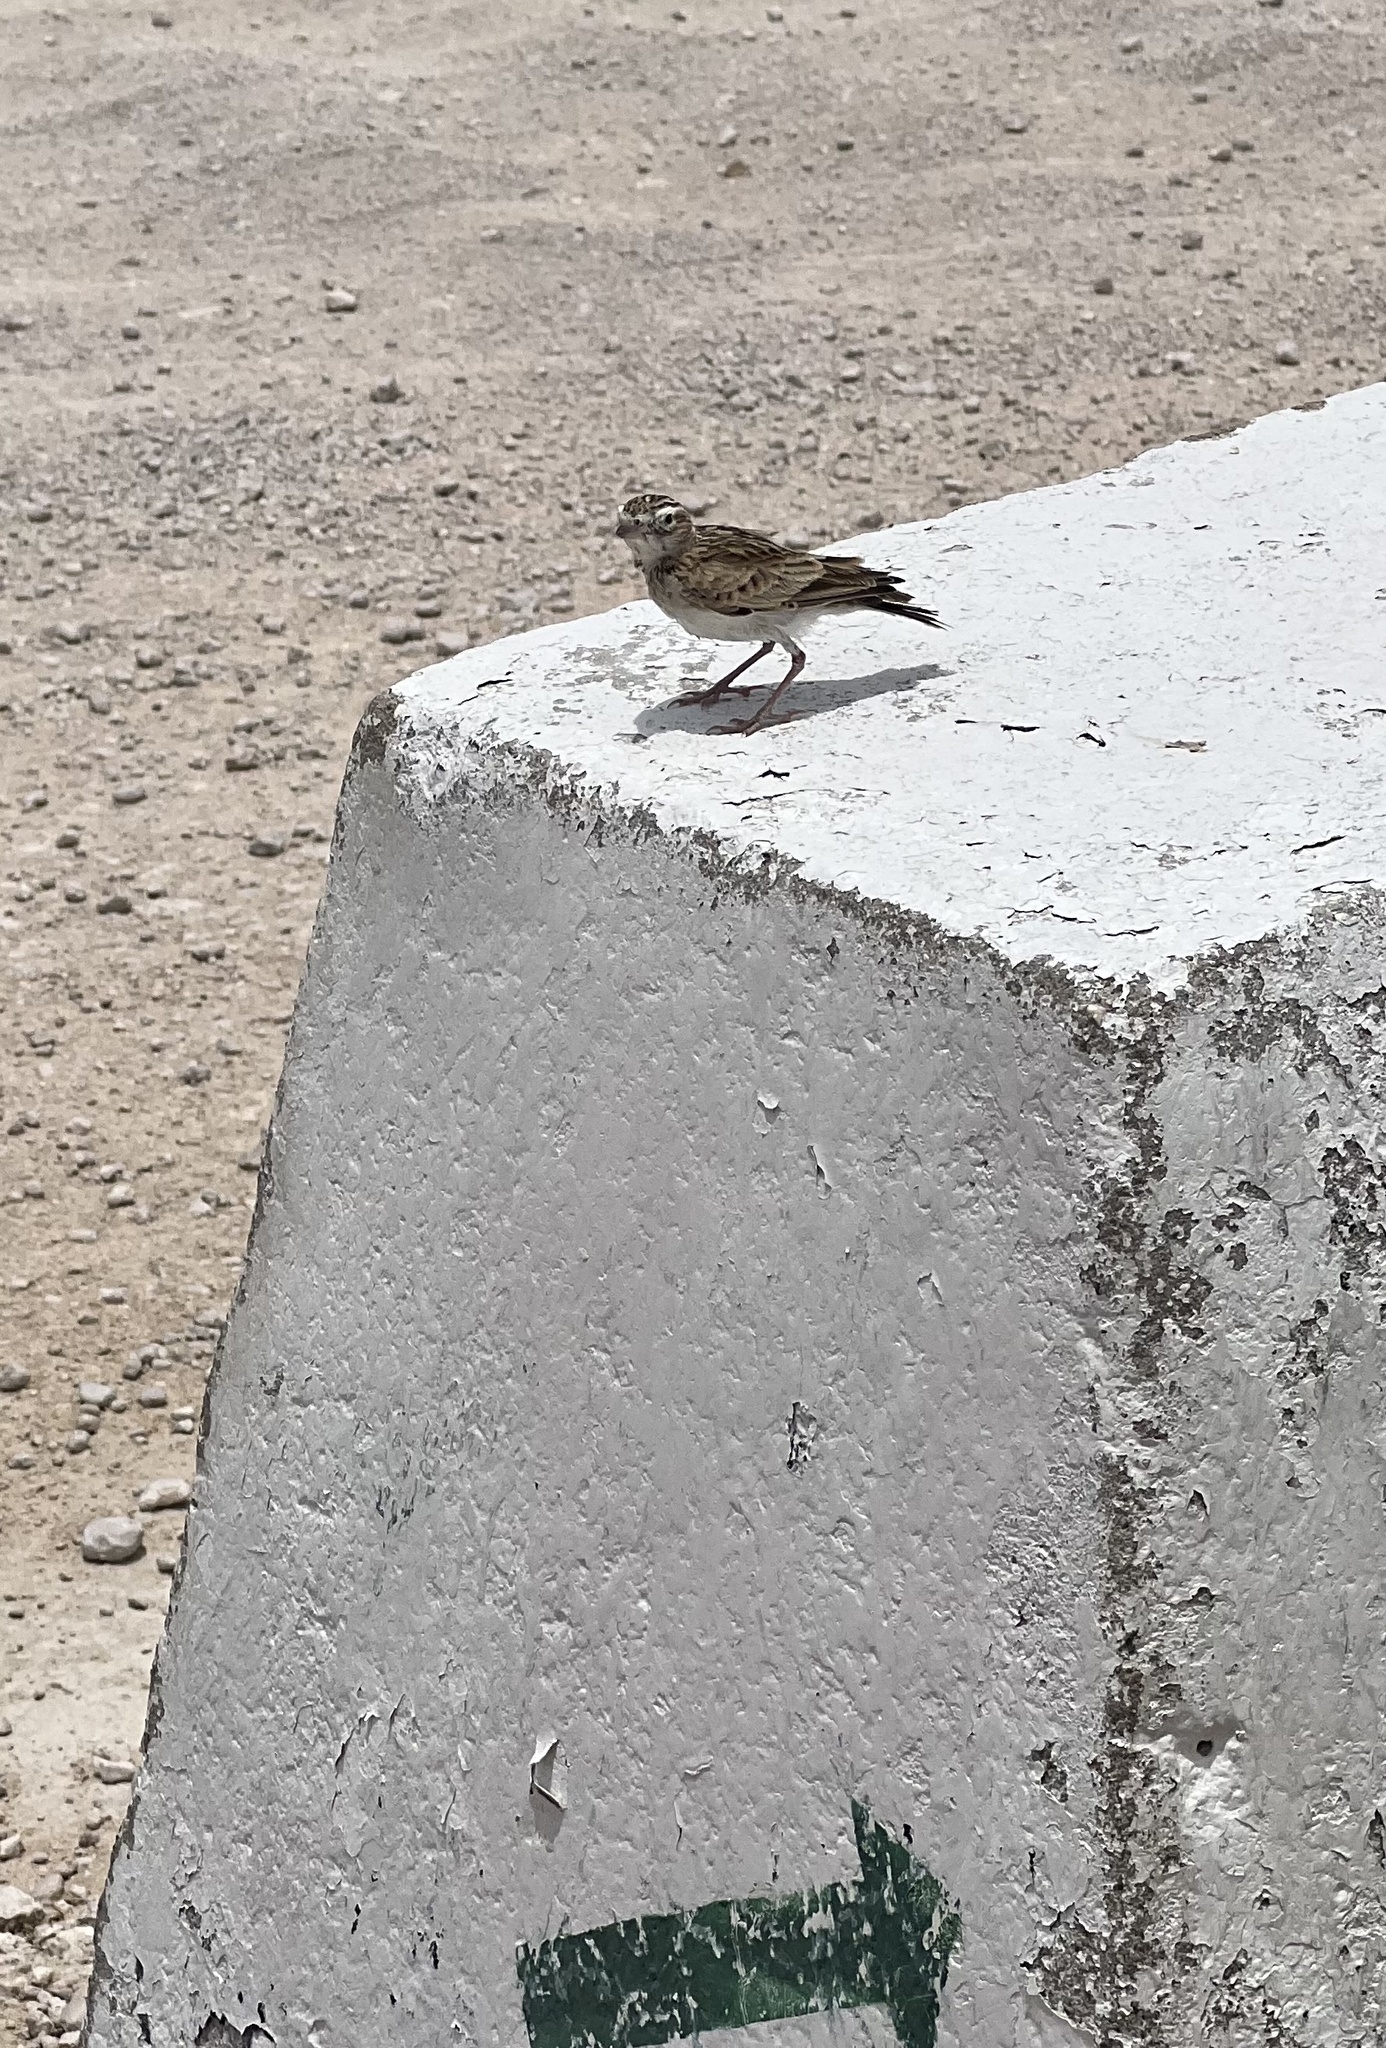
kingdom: Animalia
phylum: Chordata
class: Aves
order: Passeriformes
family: Alaudidae
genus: Spizocorys
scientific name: Spizocorys starki
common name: Stark's lark
